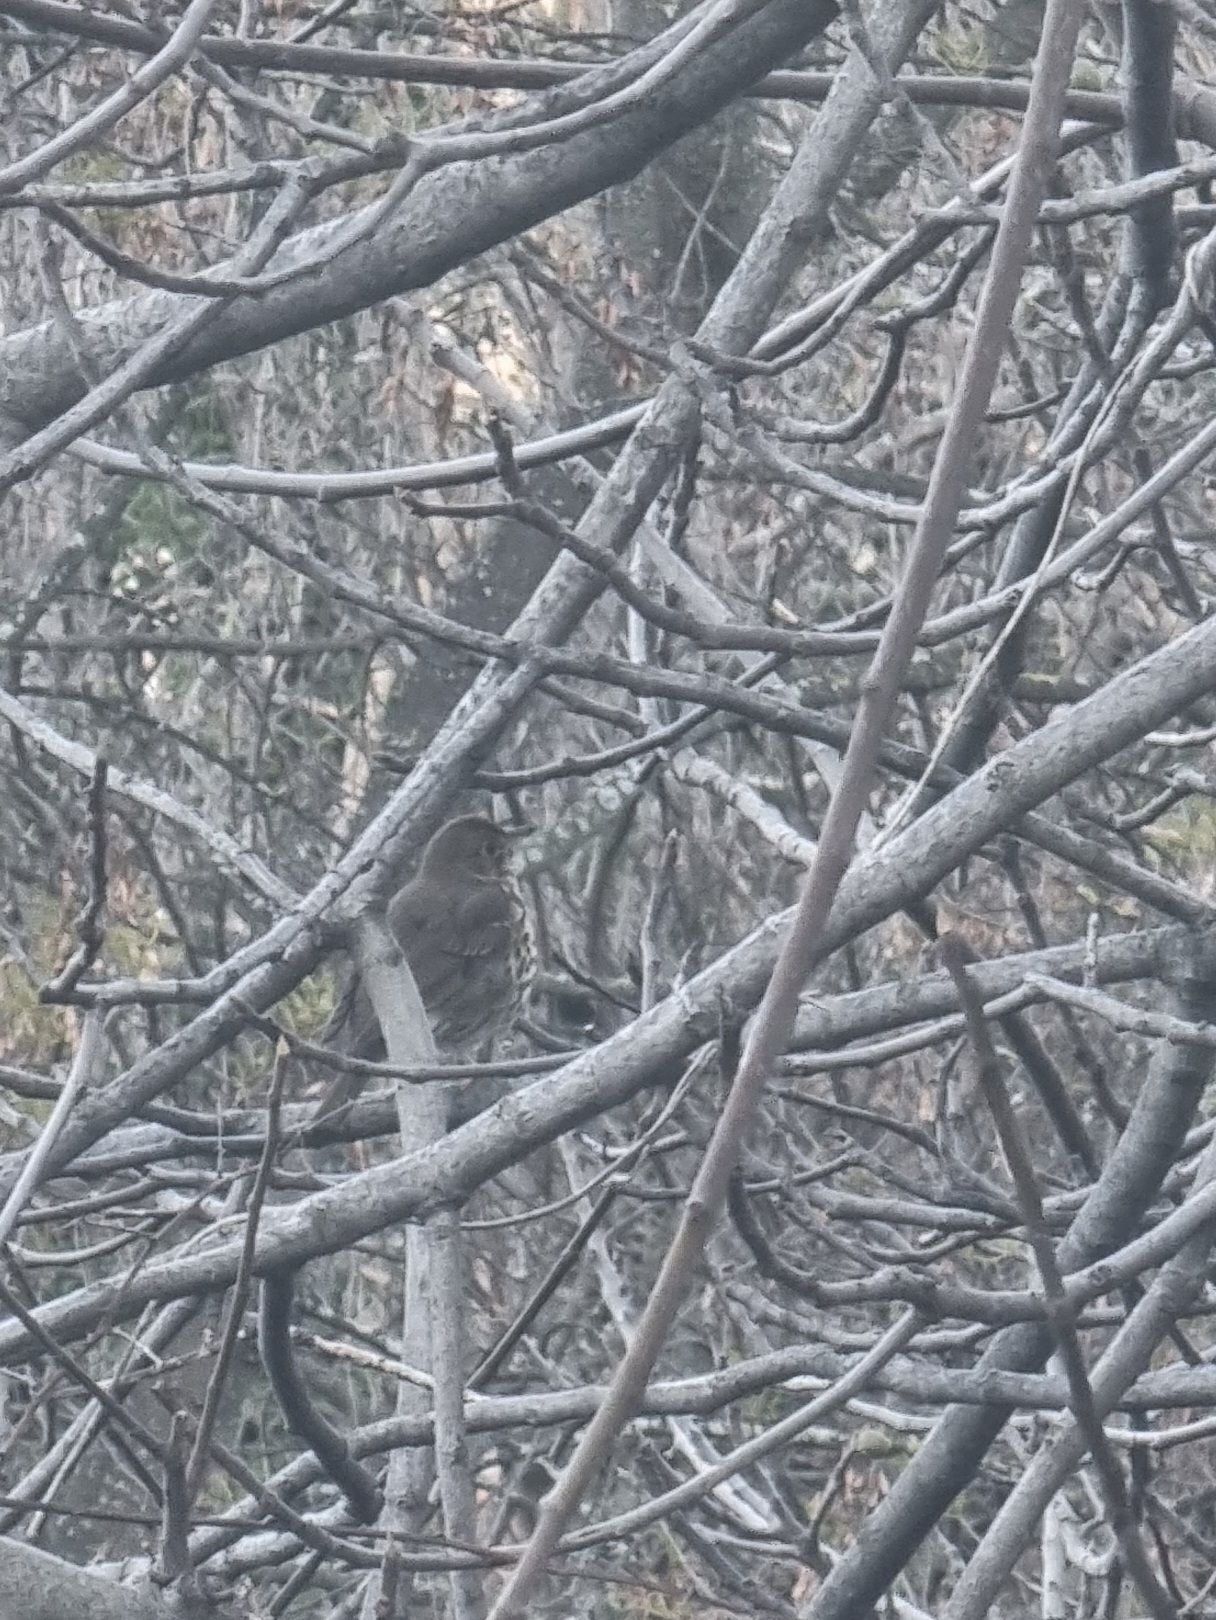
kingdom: Animalia
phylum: Chordata
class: Aves
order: Passeriformes
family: Turdidae
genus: Turdus
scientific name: Turdus philomelos
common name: Song thrush
